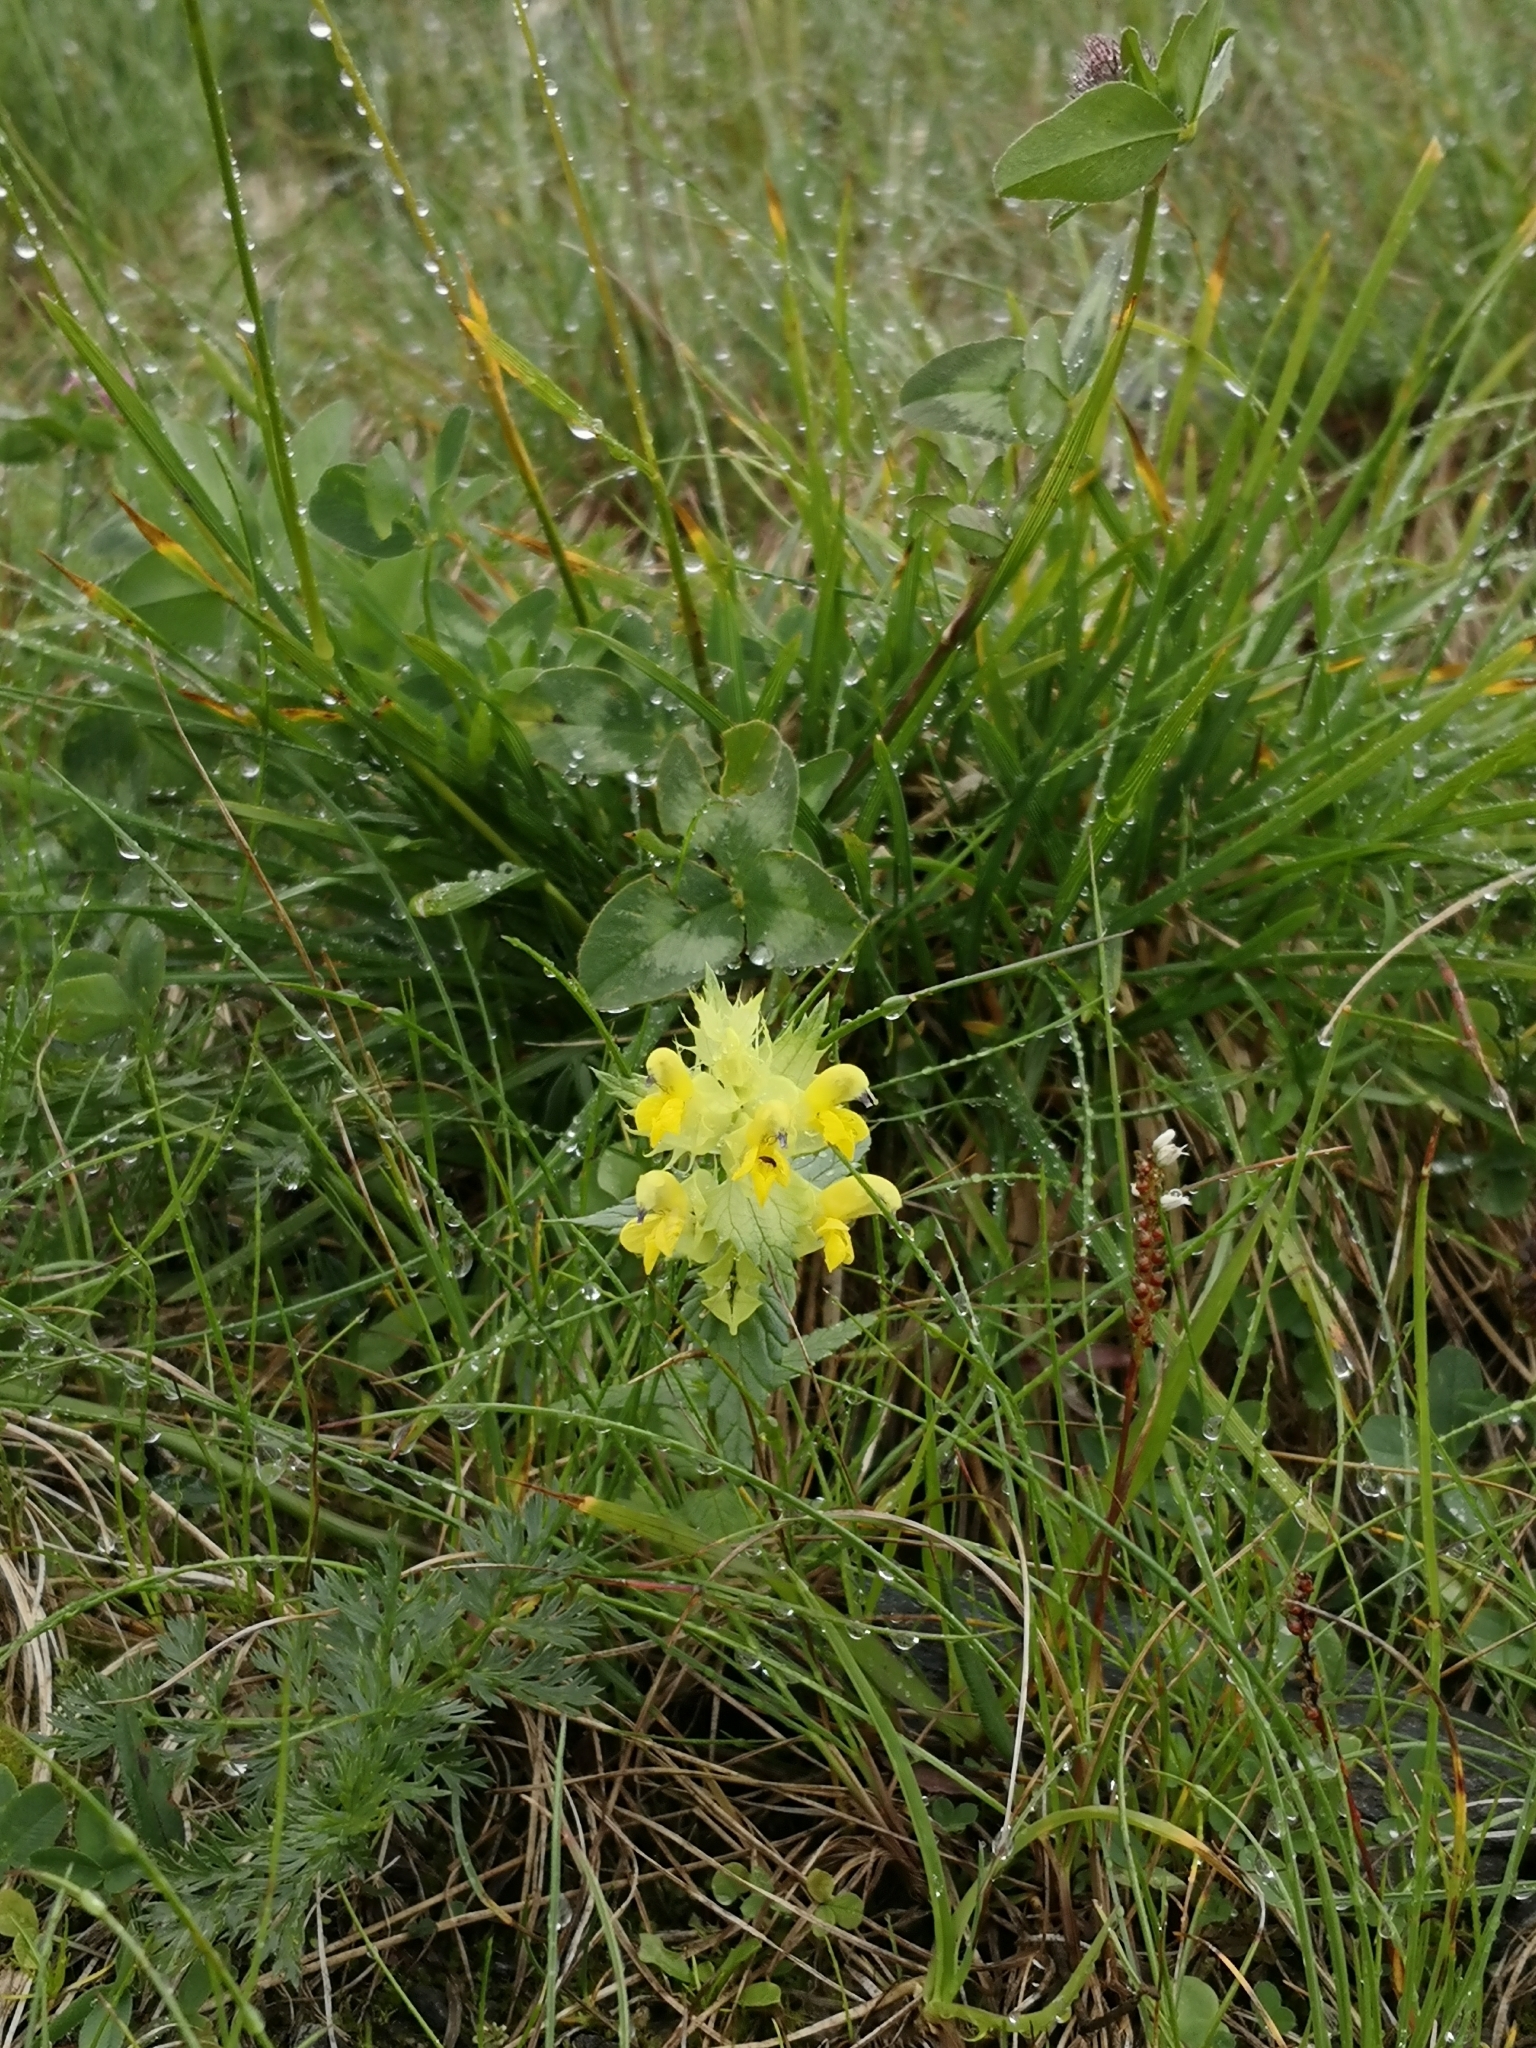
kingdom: Plantae
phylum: Tracheophyta
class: Magnoliopsida
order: Lamiales
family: Orobanchaceae
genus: Rhinanthus
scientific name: Rhinanthus glacialis
